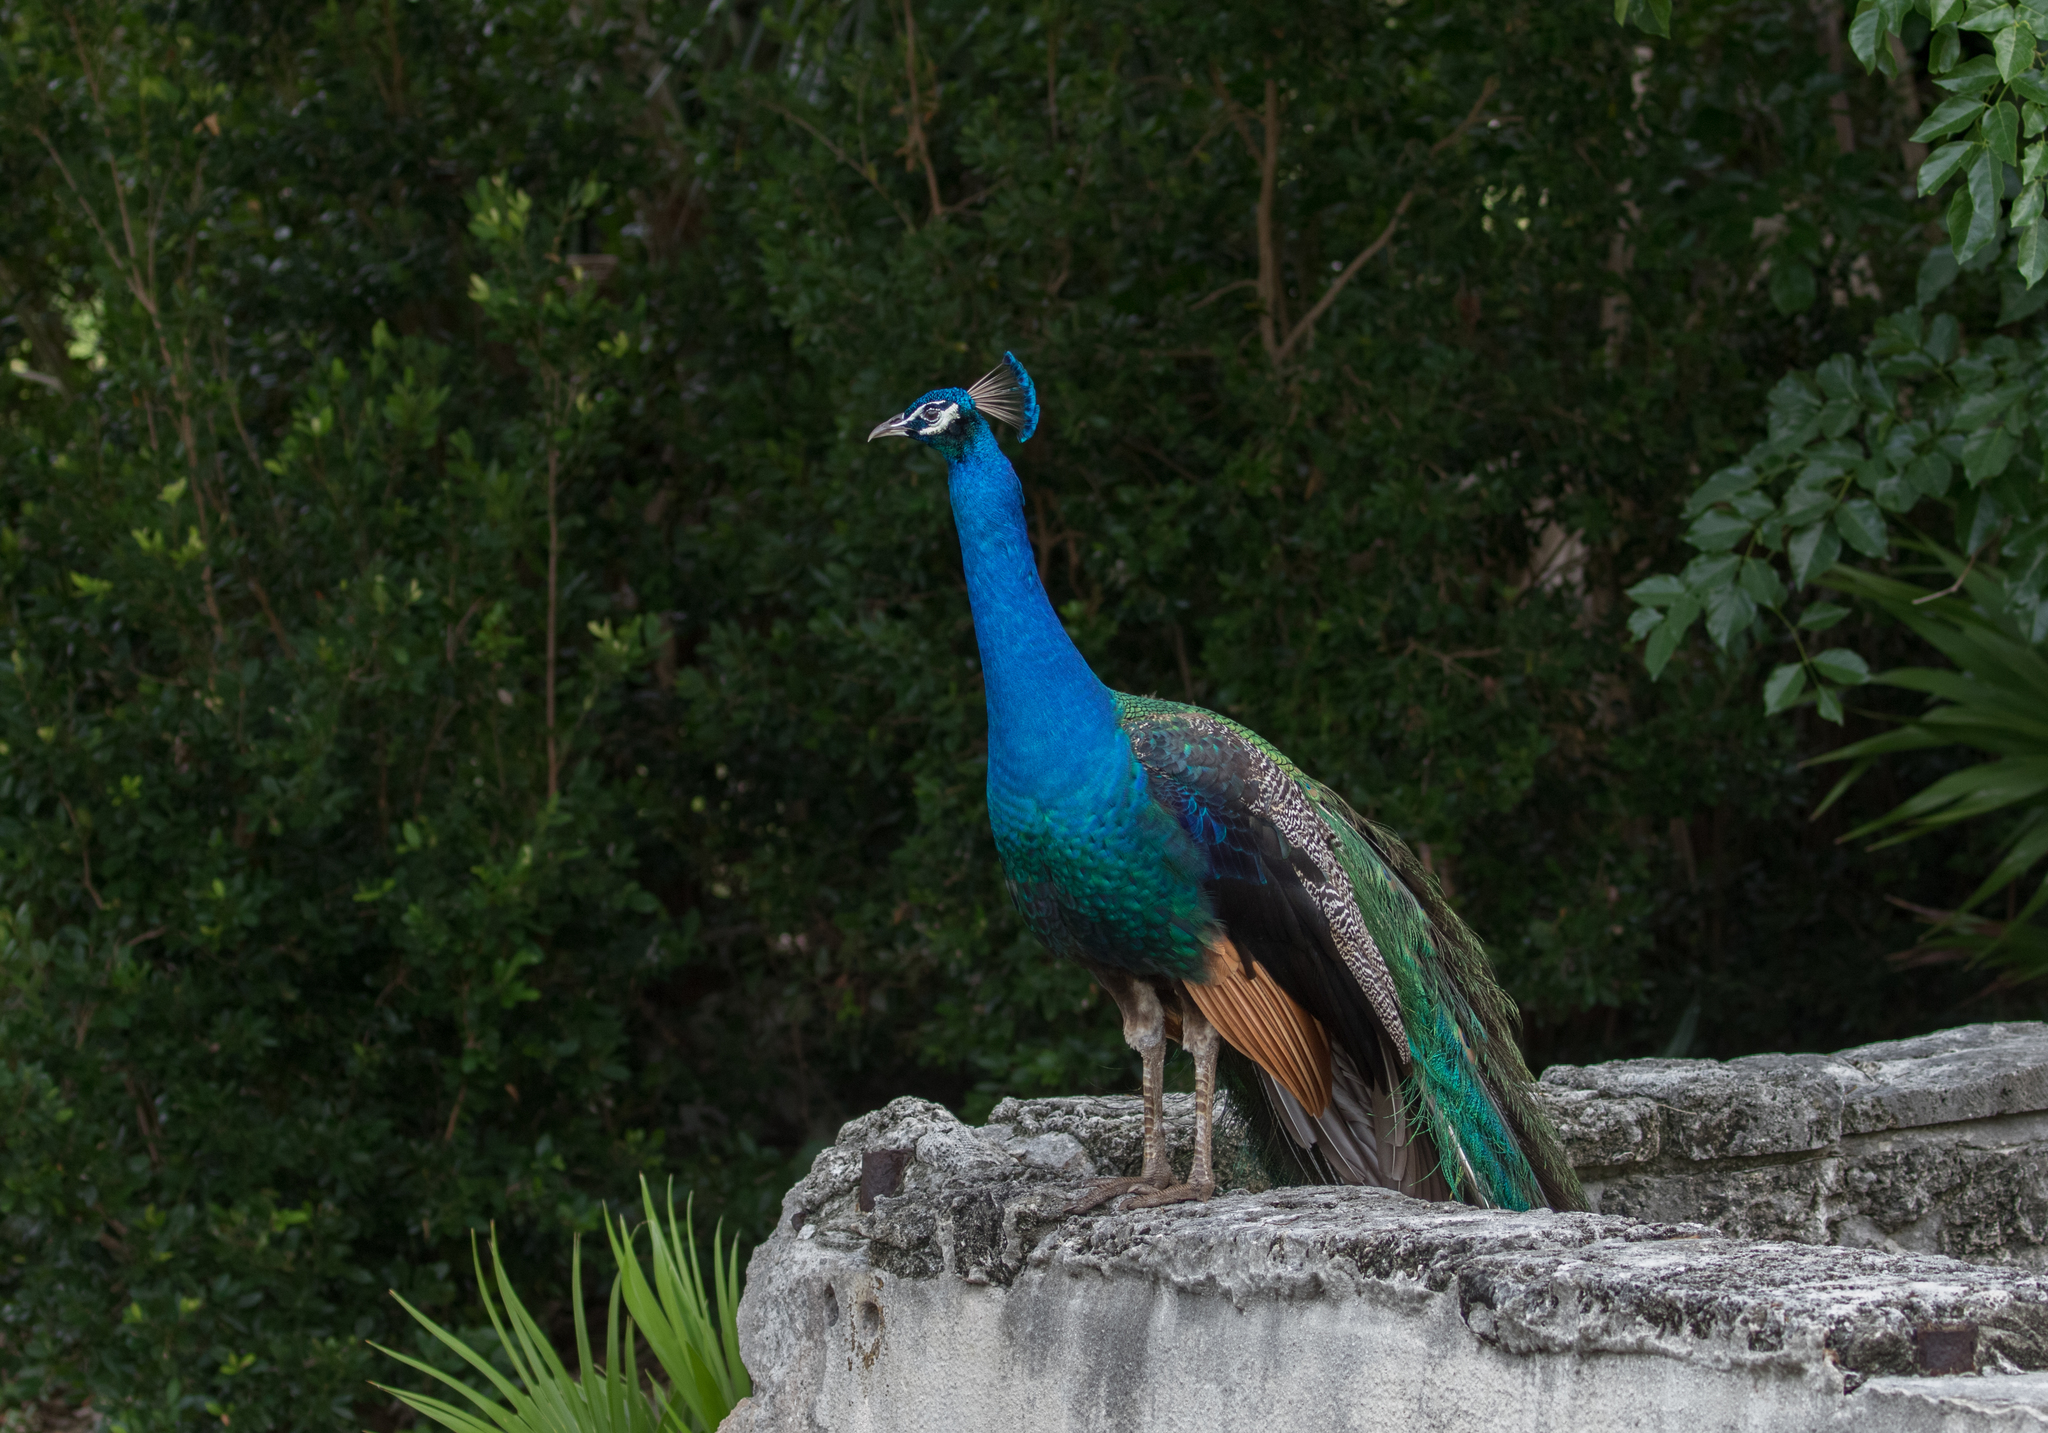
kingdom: Animalia
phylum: Chordata
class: Aves
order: Galliformes
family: Phasianidae
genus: Pavo
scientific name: Pavo cristatus
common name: Indian peafowl
